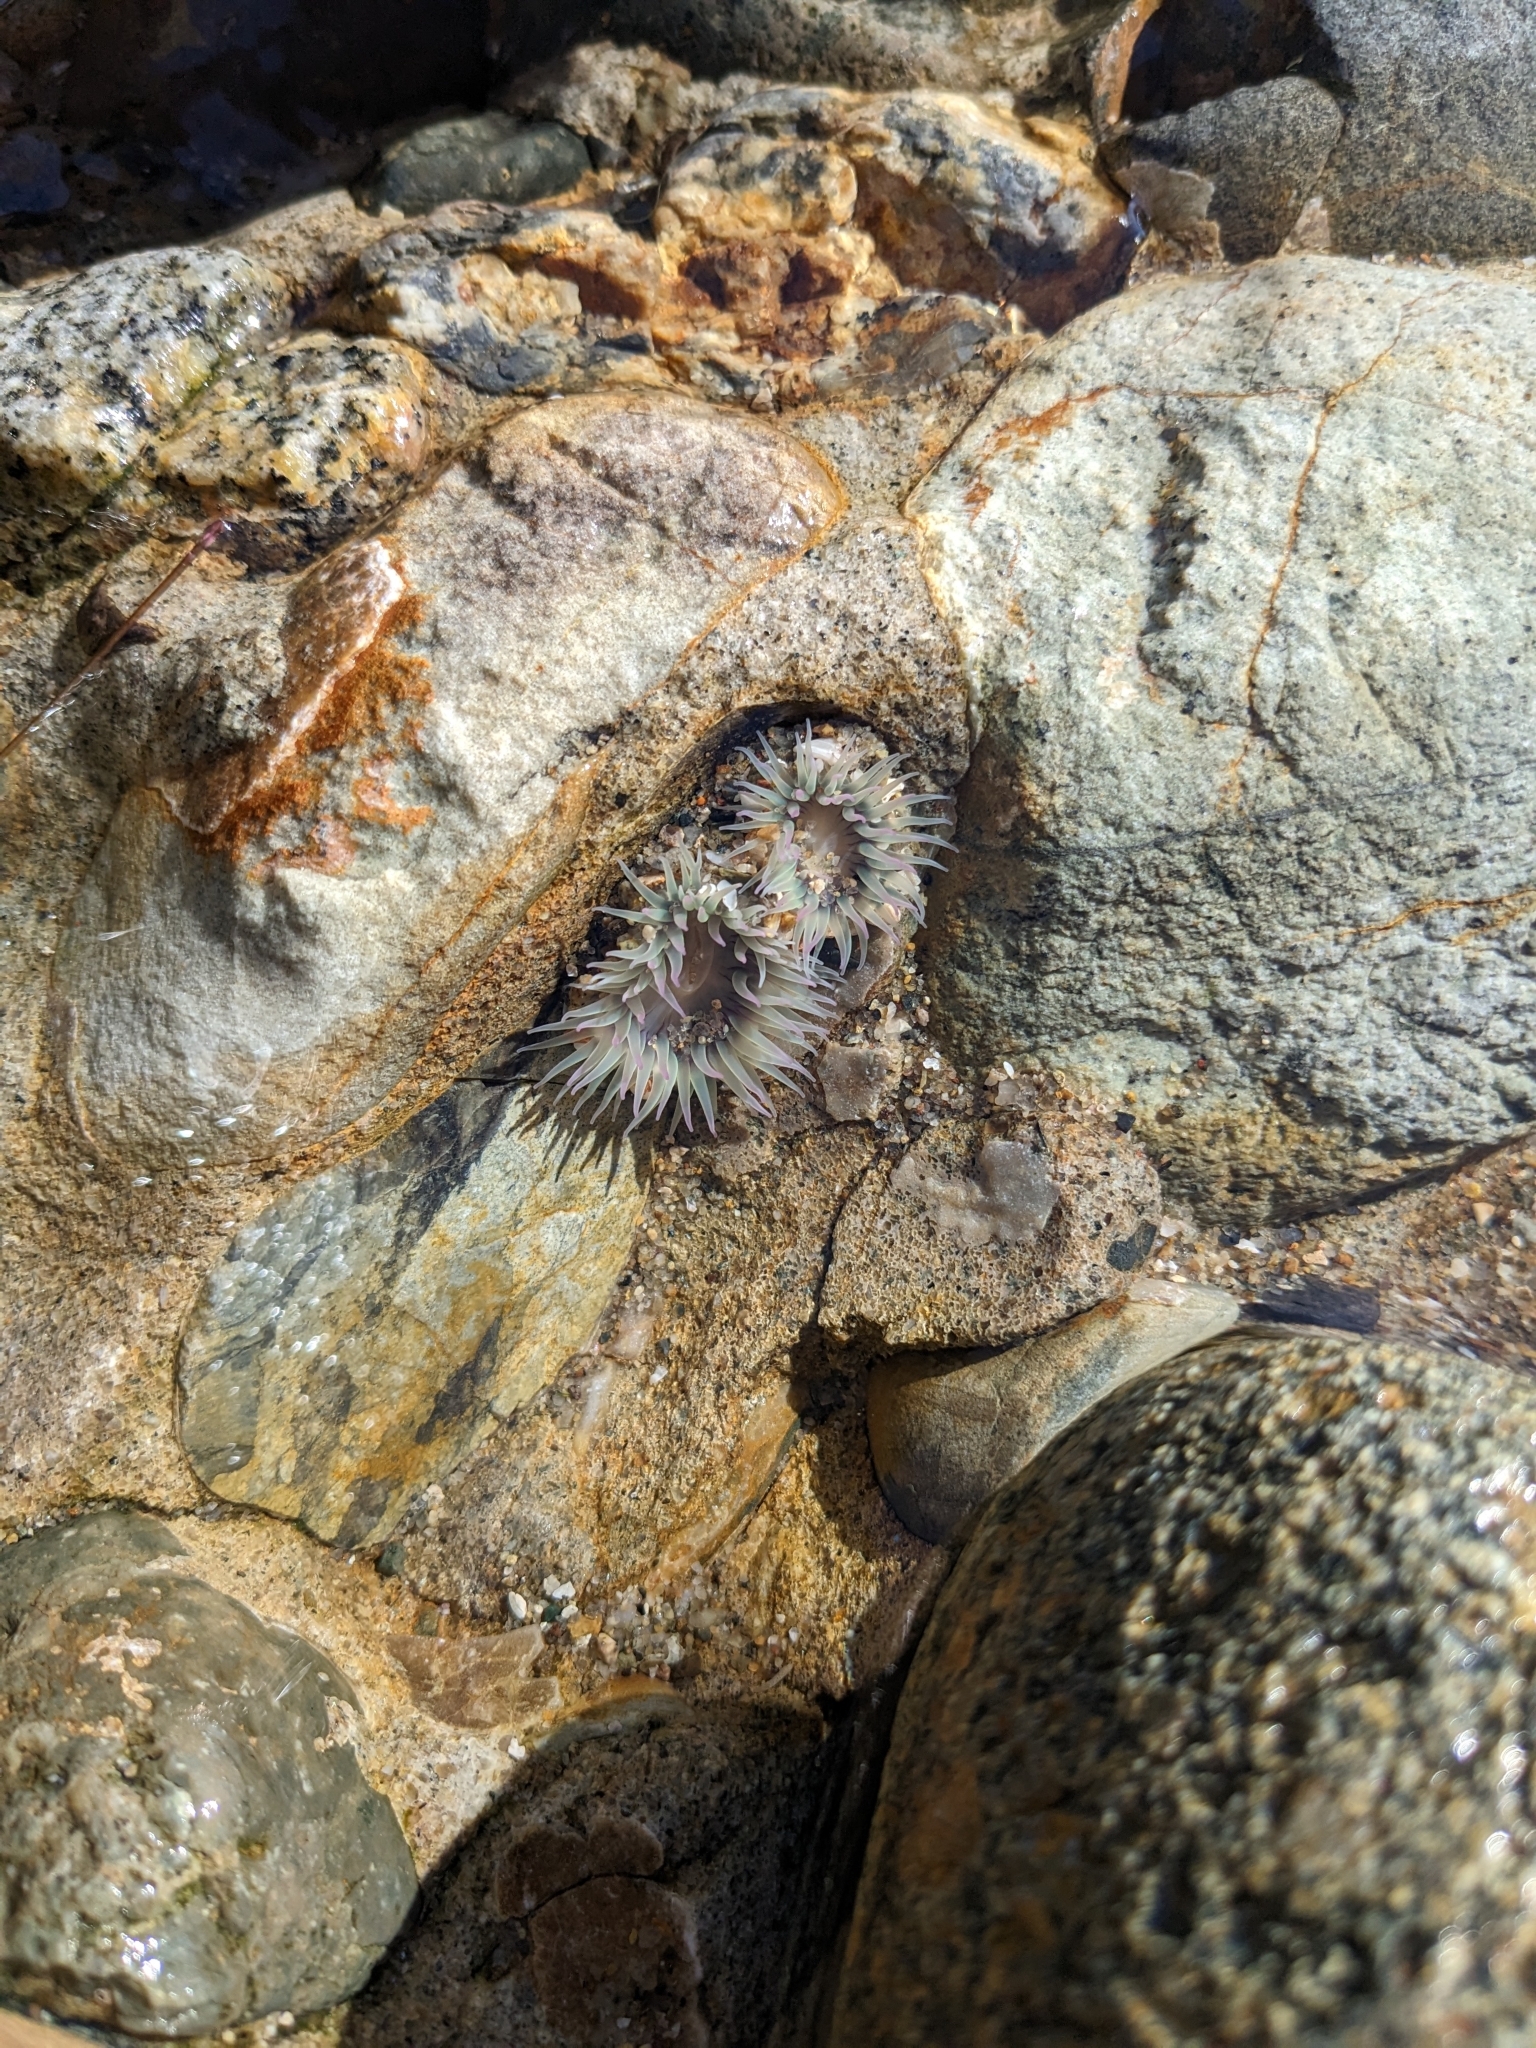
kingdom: Animalia
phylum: Cnidaria
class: Anthozoa
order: Actiniaria
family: Actiniidae
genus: Anthopleura
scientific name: Anthopleura elegantissima
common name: Clonal anemone
